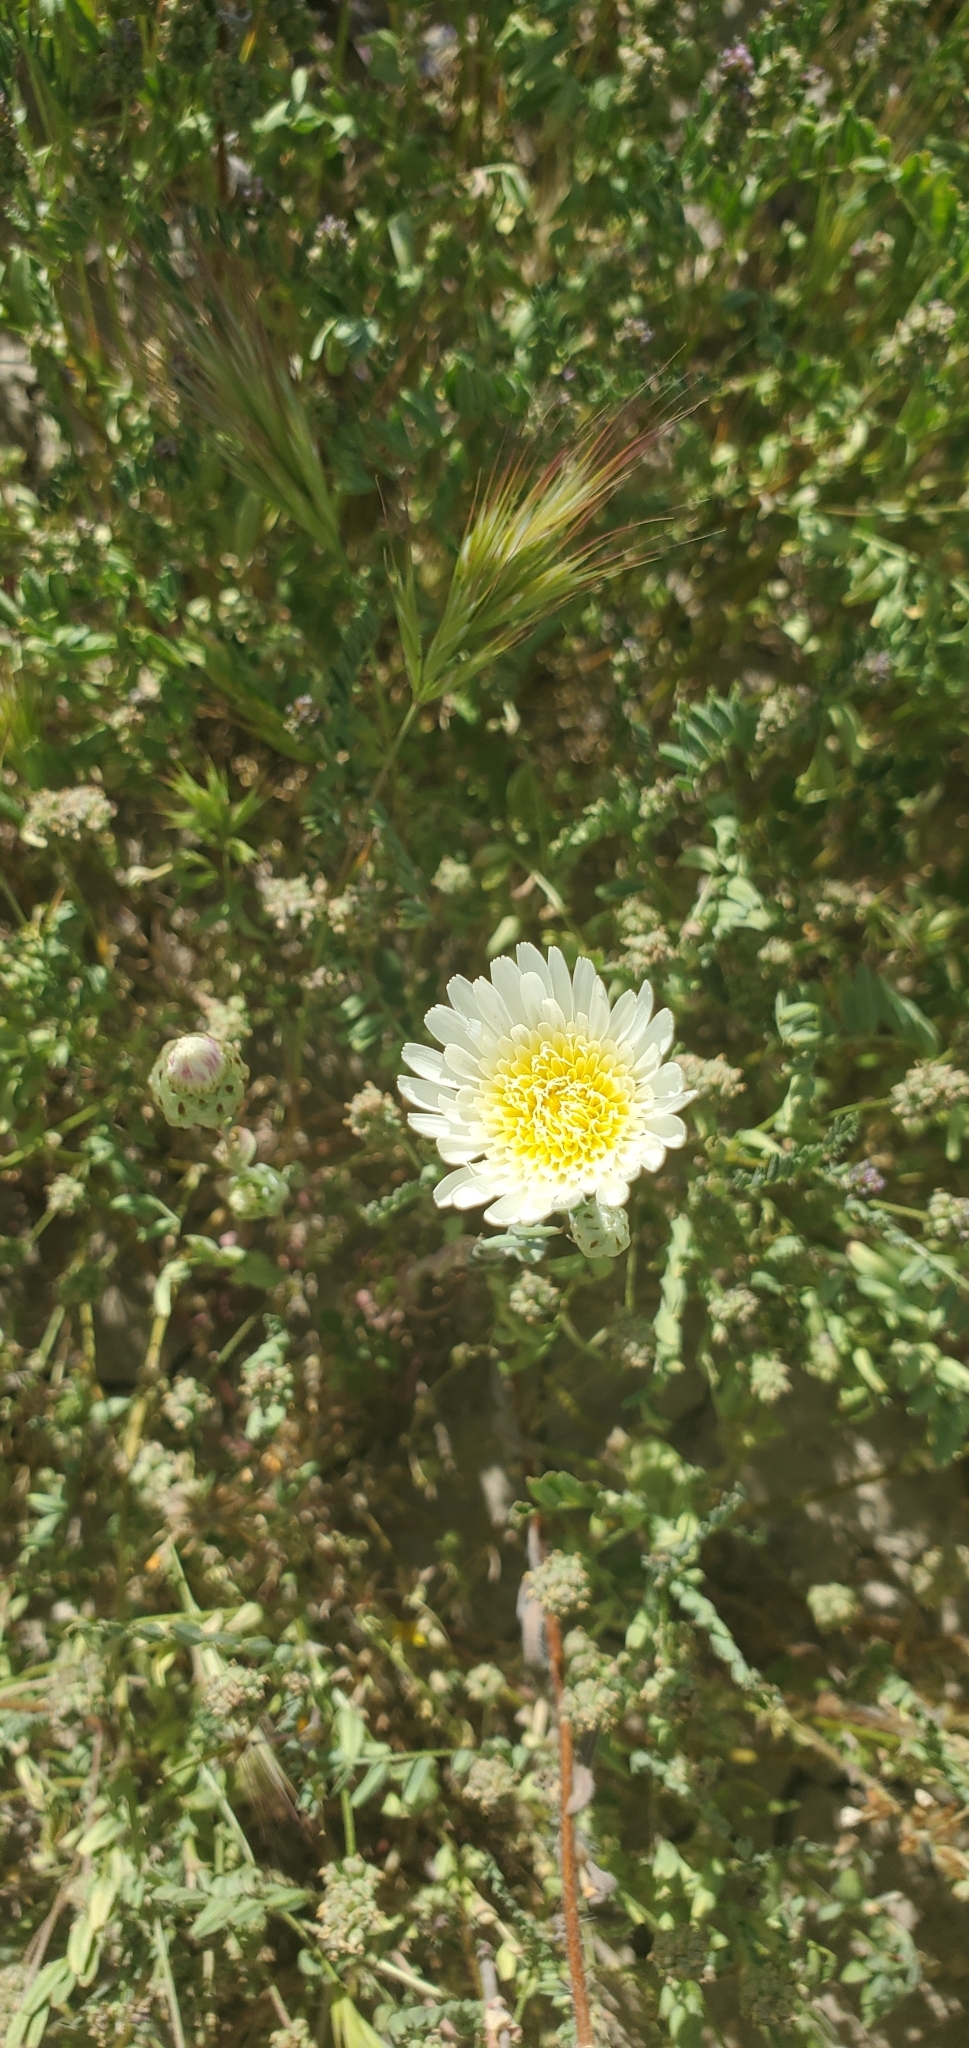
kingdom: Plantae
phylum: Tracheophyta
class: Magnoliopsida
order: Asterales
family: Asteraceae
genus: Malacothrix
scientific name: Malacothrix coulteri
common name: Snake's-head
